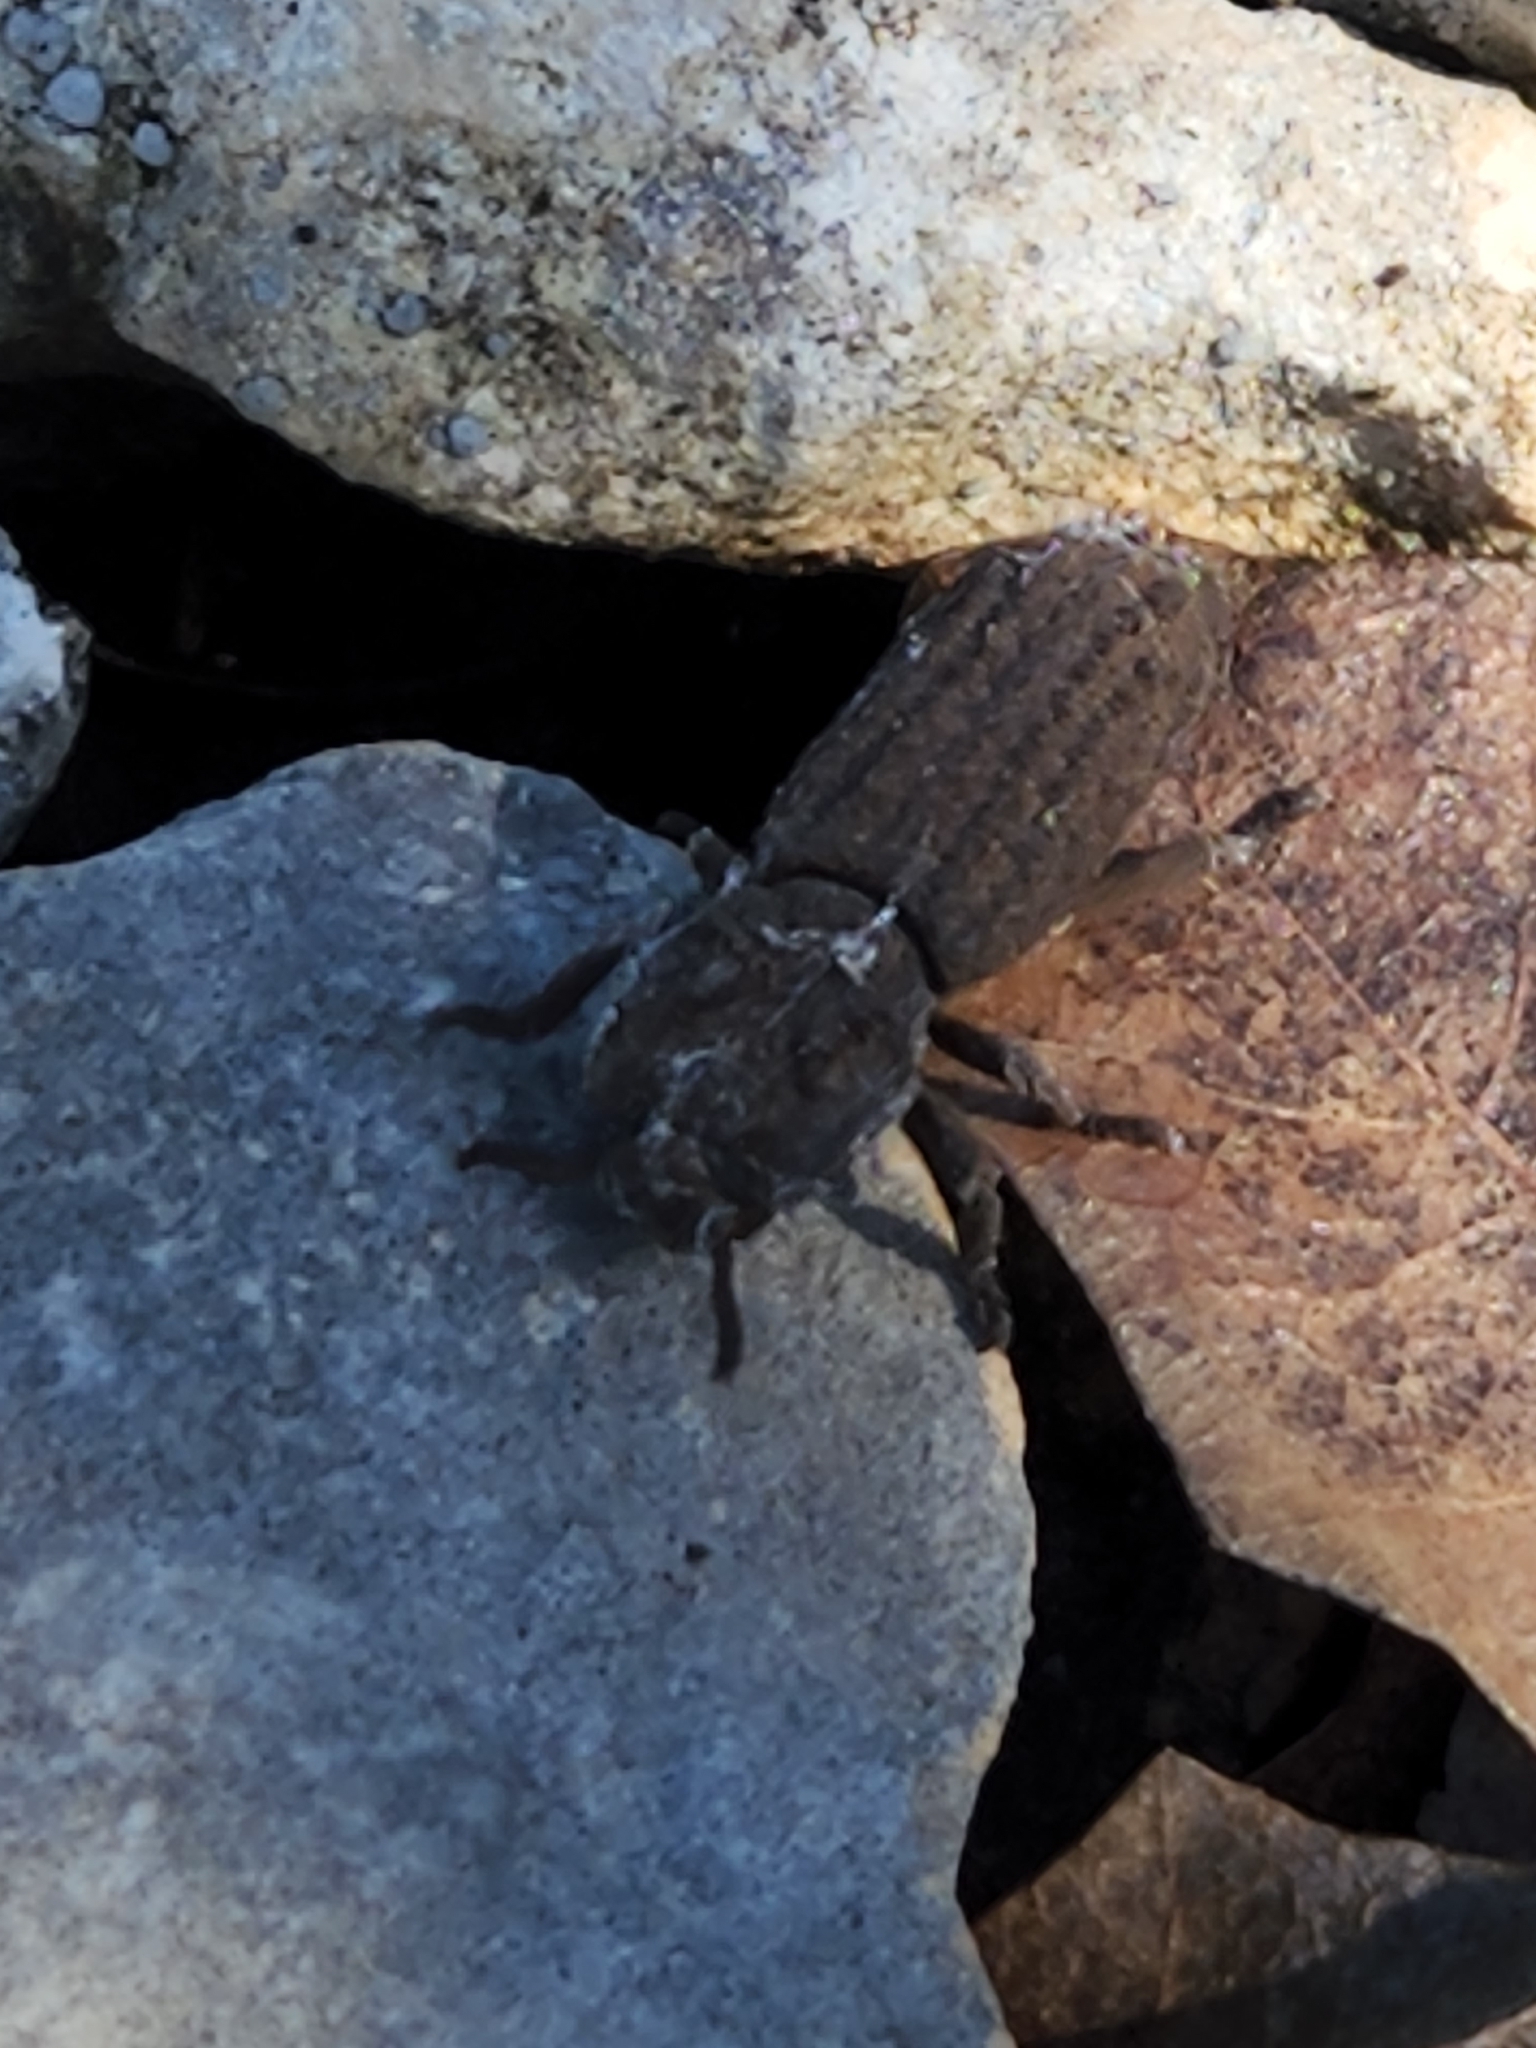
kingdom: Animalia
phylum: Arthropoda
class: Insecta
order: Coleoptera
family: Zopheridae
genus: Sesaspis
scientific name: Sesaspis
